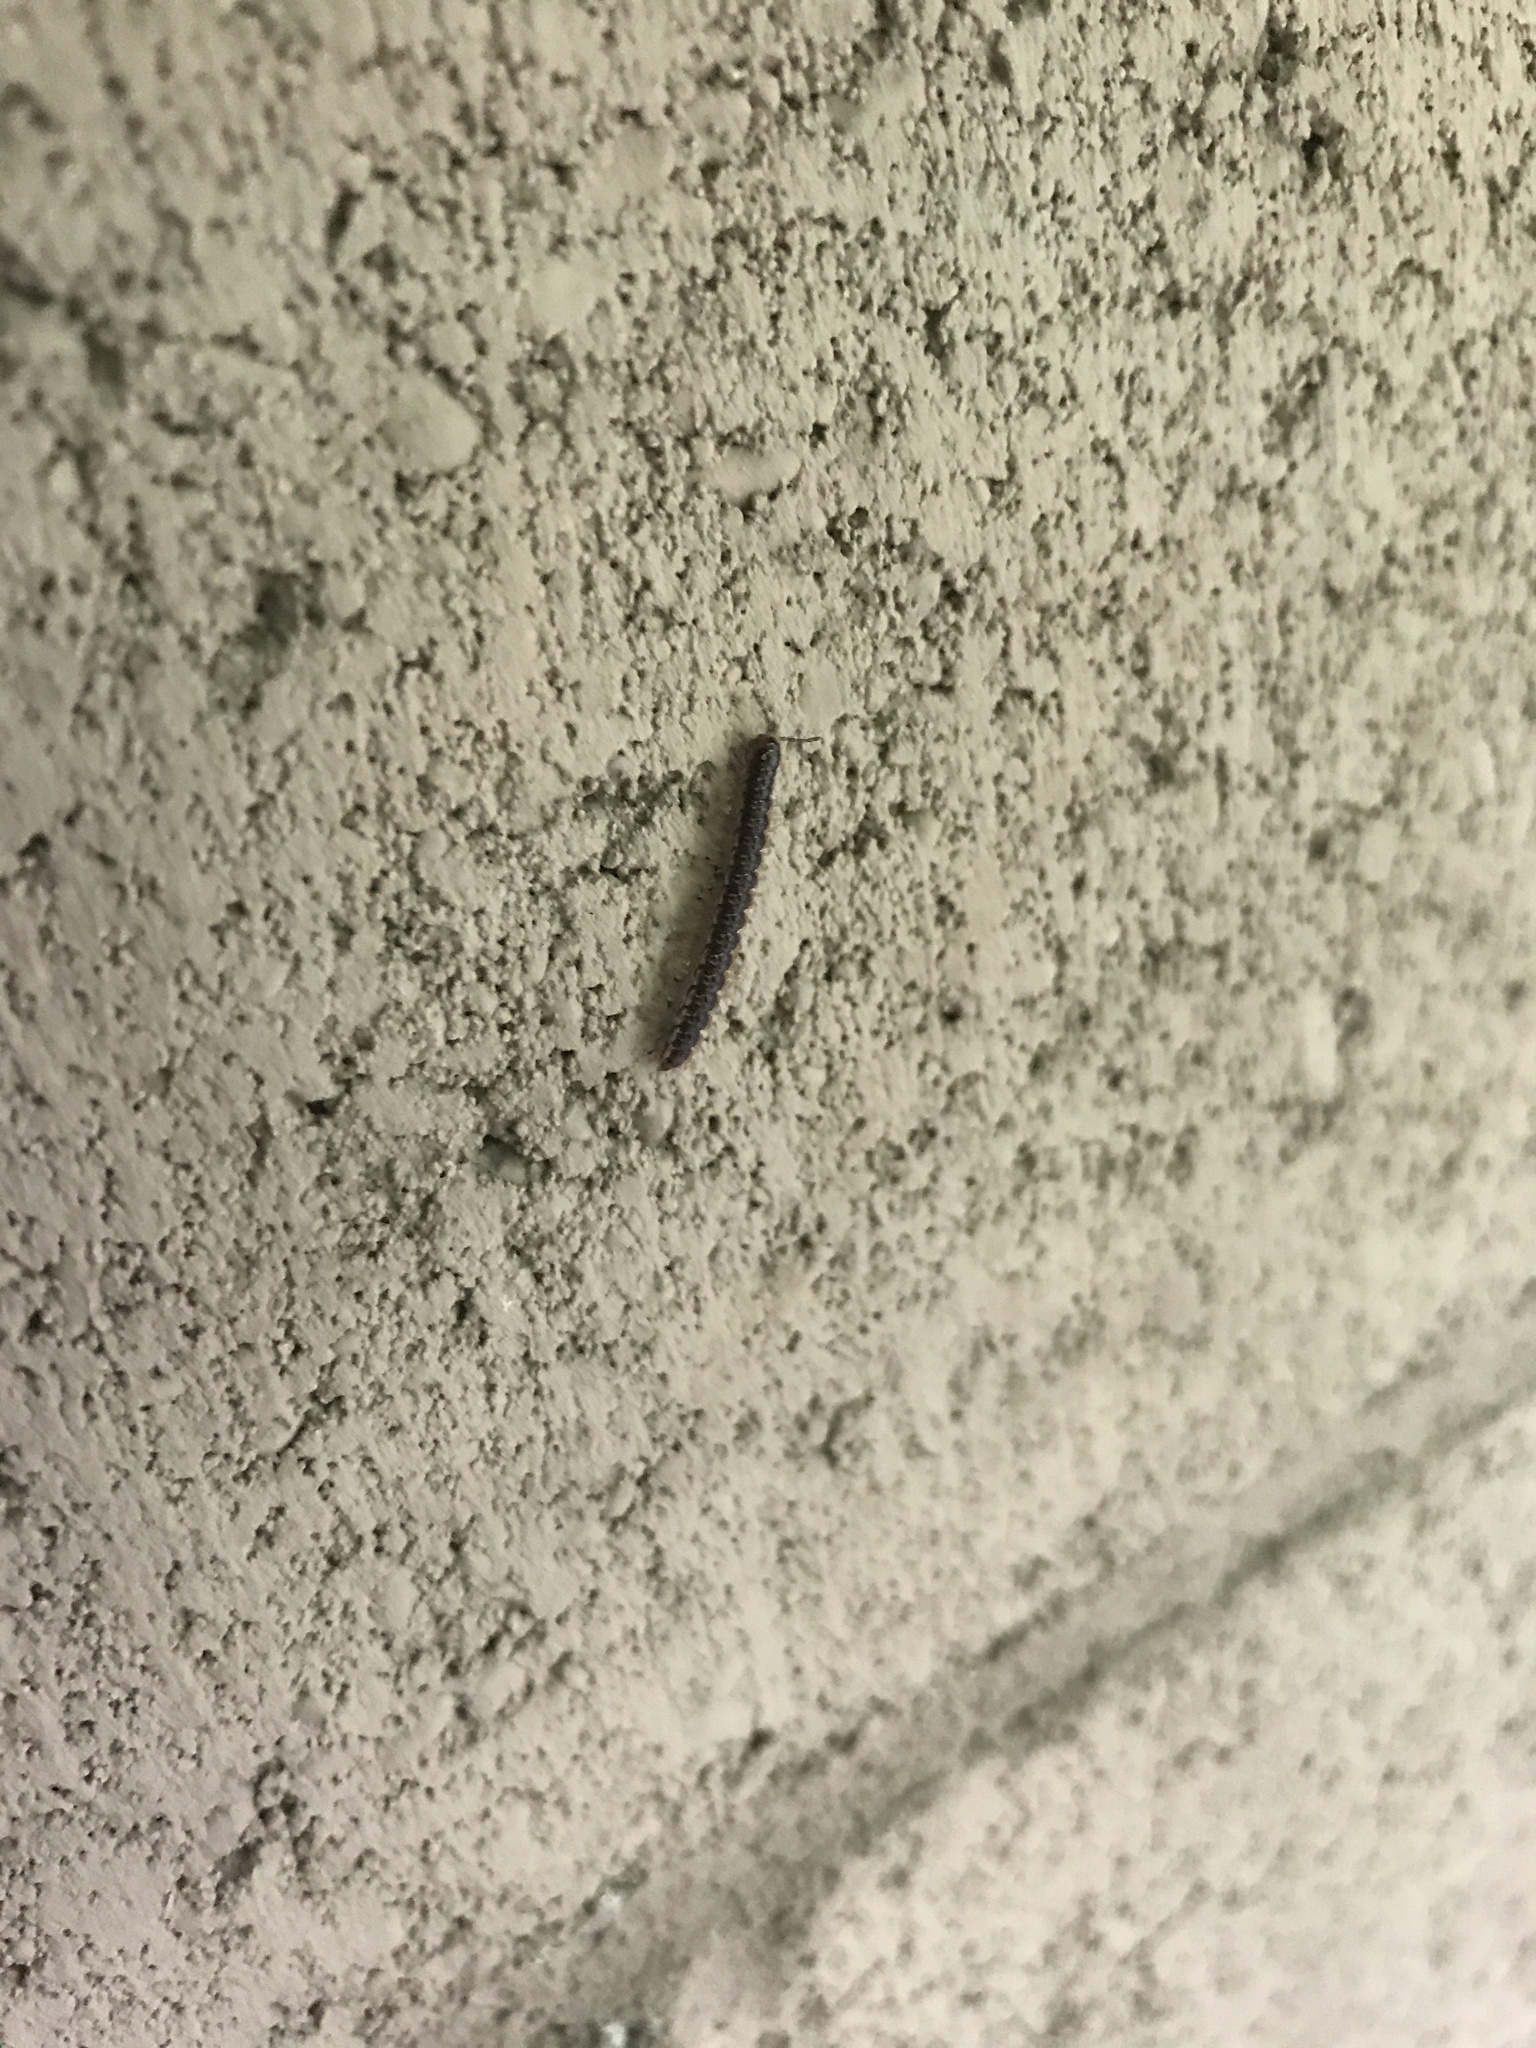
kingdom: Animalia
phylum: Arthropoda
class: Diplopoda
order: Polydesmida
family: Paradoxosomatidae
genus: Oxidus
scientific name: Oxidus gracilis
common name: Greenhouse millipede
